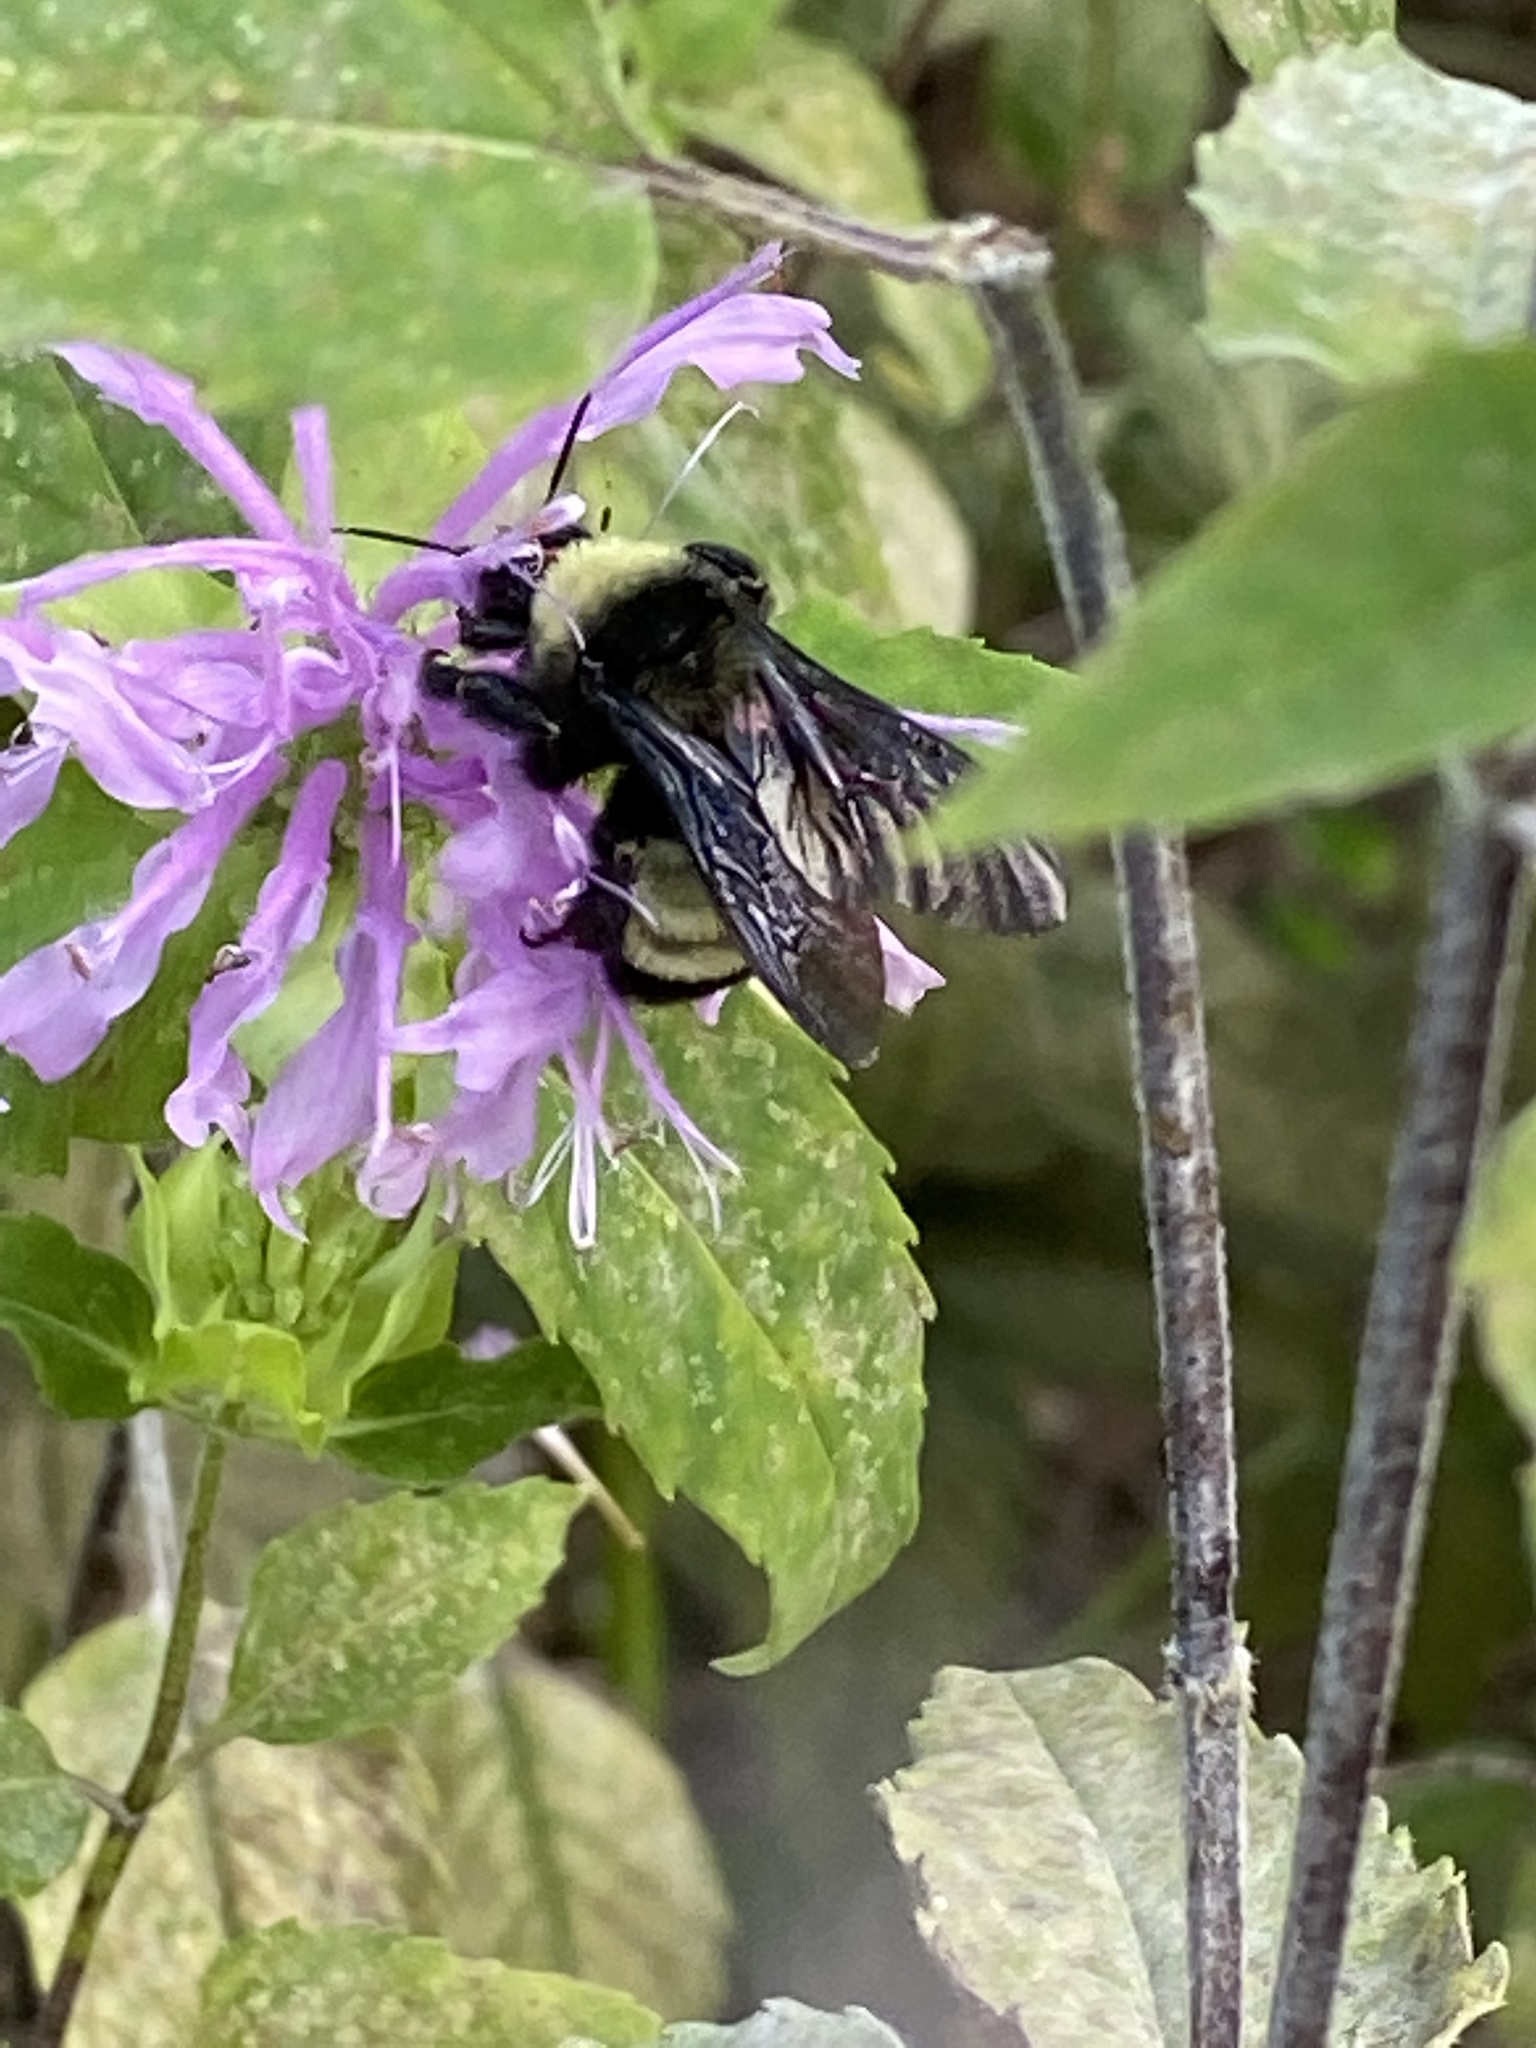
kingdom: Animalia
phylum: Arthropoda
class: Insecta
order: Hymenoptera
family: Apidae
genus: Bombus
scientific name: Bombus pensylvanicus
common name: Bumble bee
